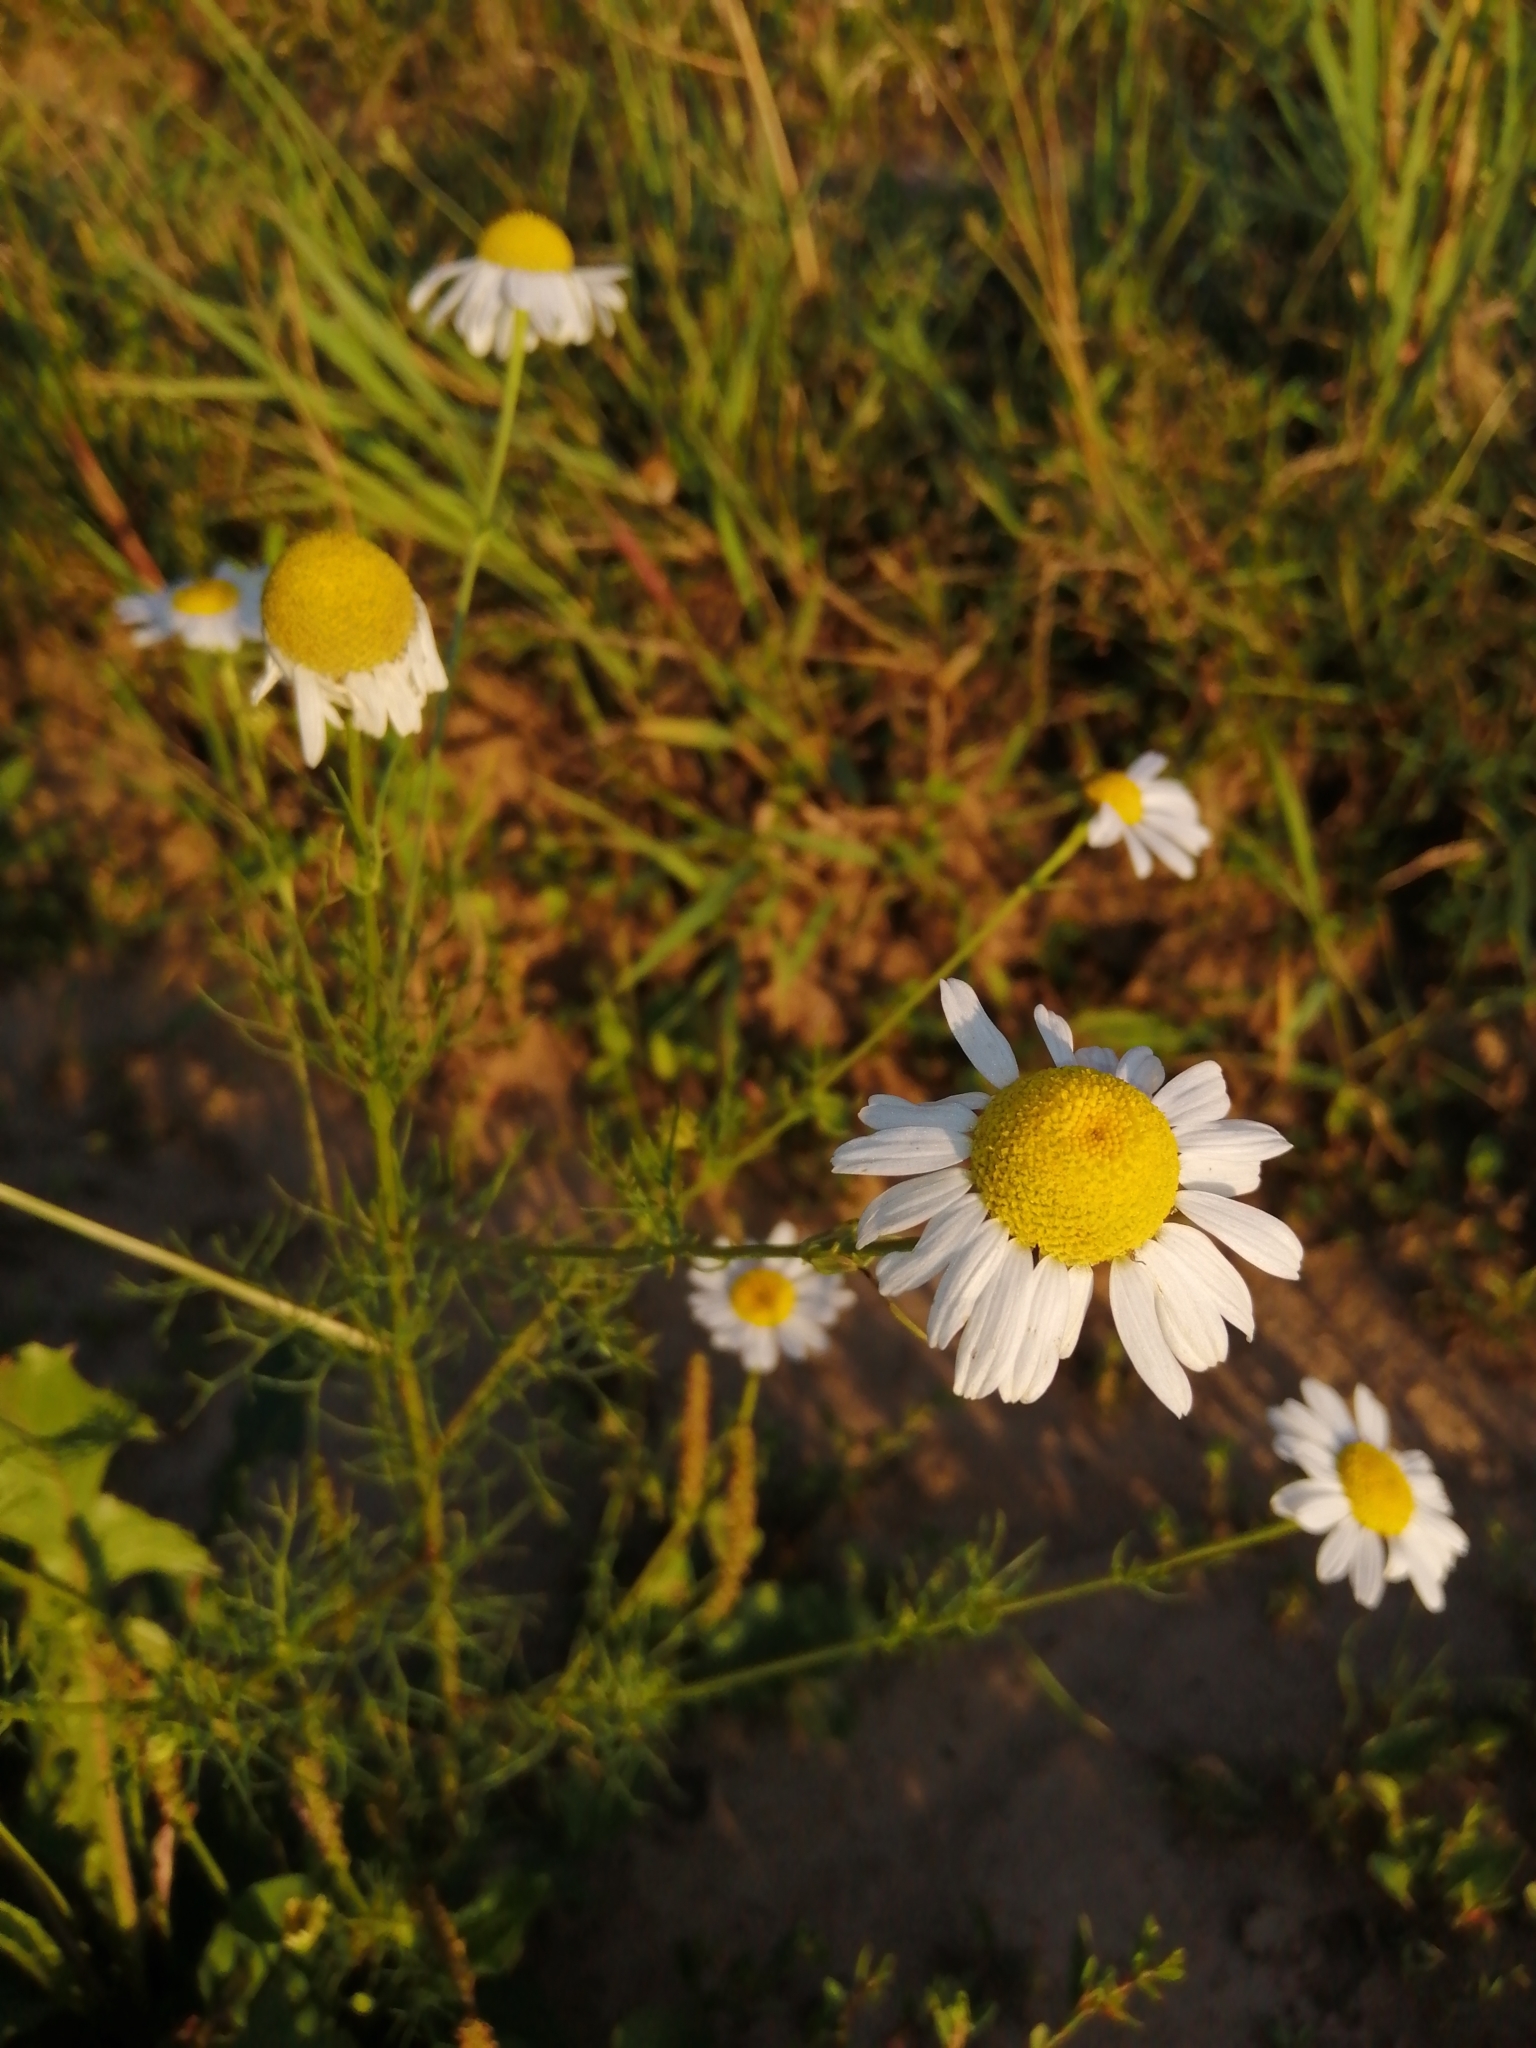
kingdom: Plantae
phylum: Tracheophyta
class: Magnoliopsida
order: Asterales
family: Asteraceae
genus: Tripleurospermum
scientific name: Tripleurospermum inodorum
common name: Scentless mayweed
